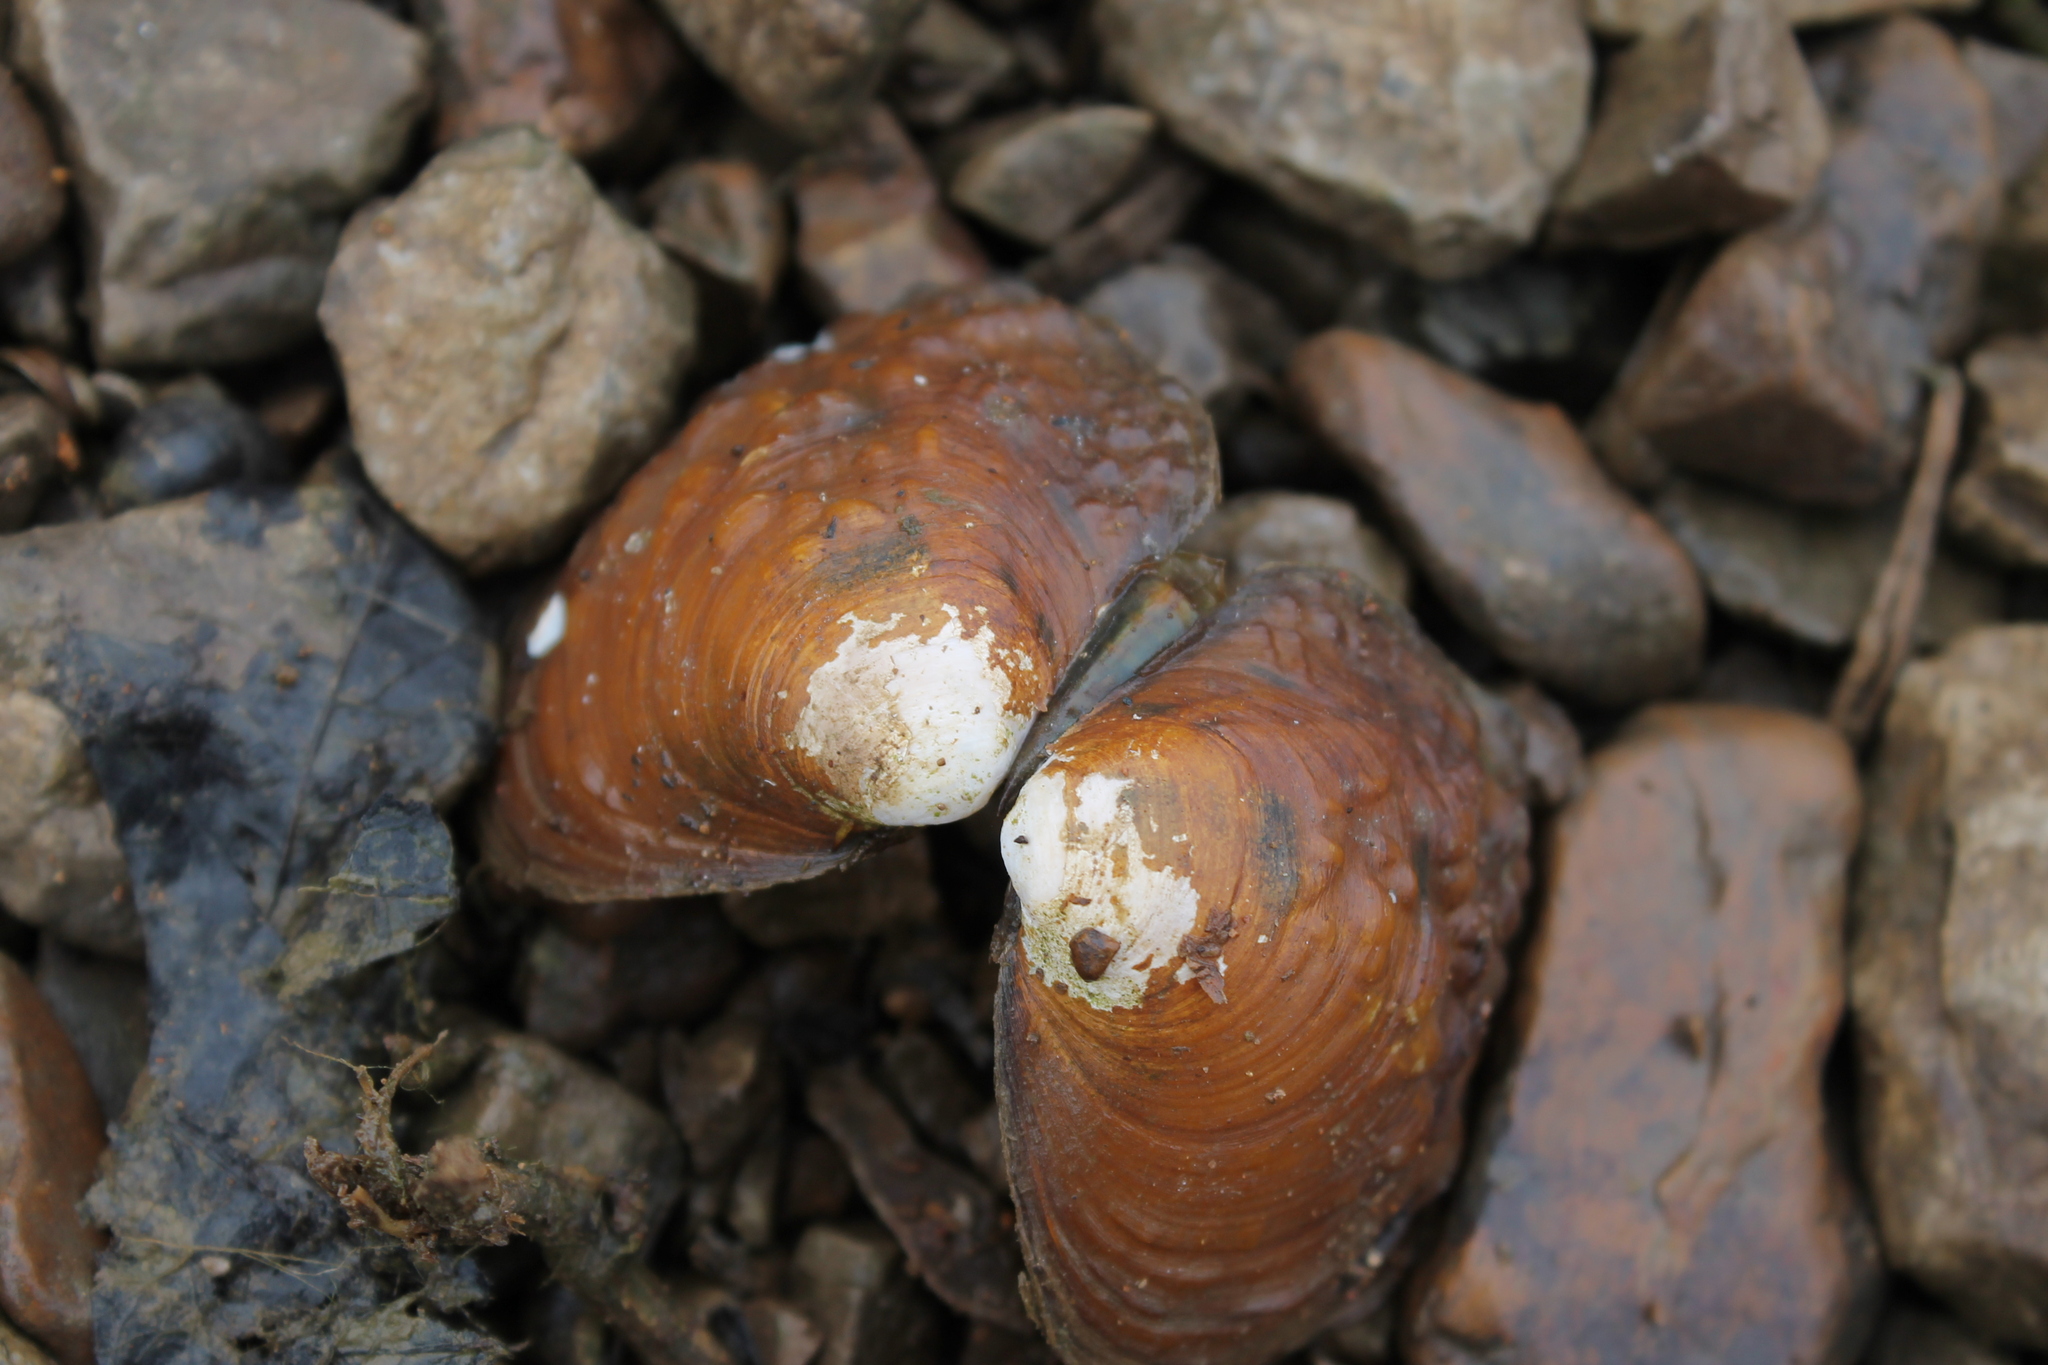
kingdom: Animalia
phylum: Mollusca
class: Bivalvia
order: Unionida
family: Unionidae
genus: Cyclonaias
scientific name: Cyclonaias pustulosa
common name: Pimpleback
